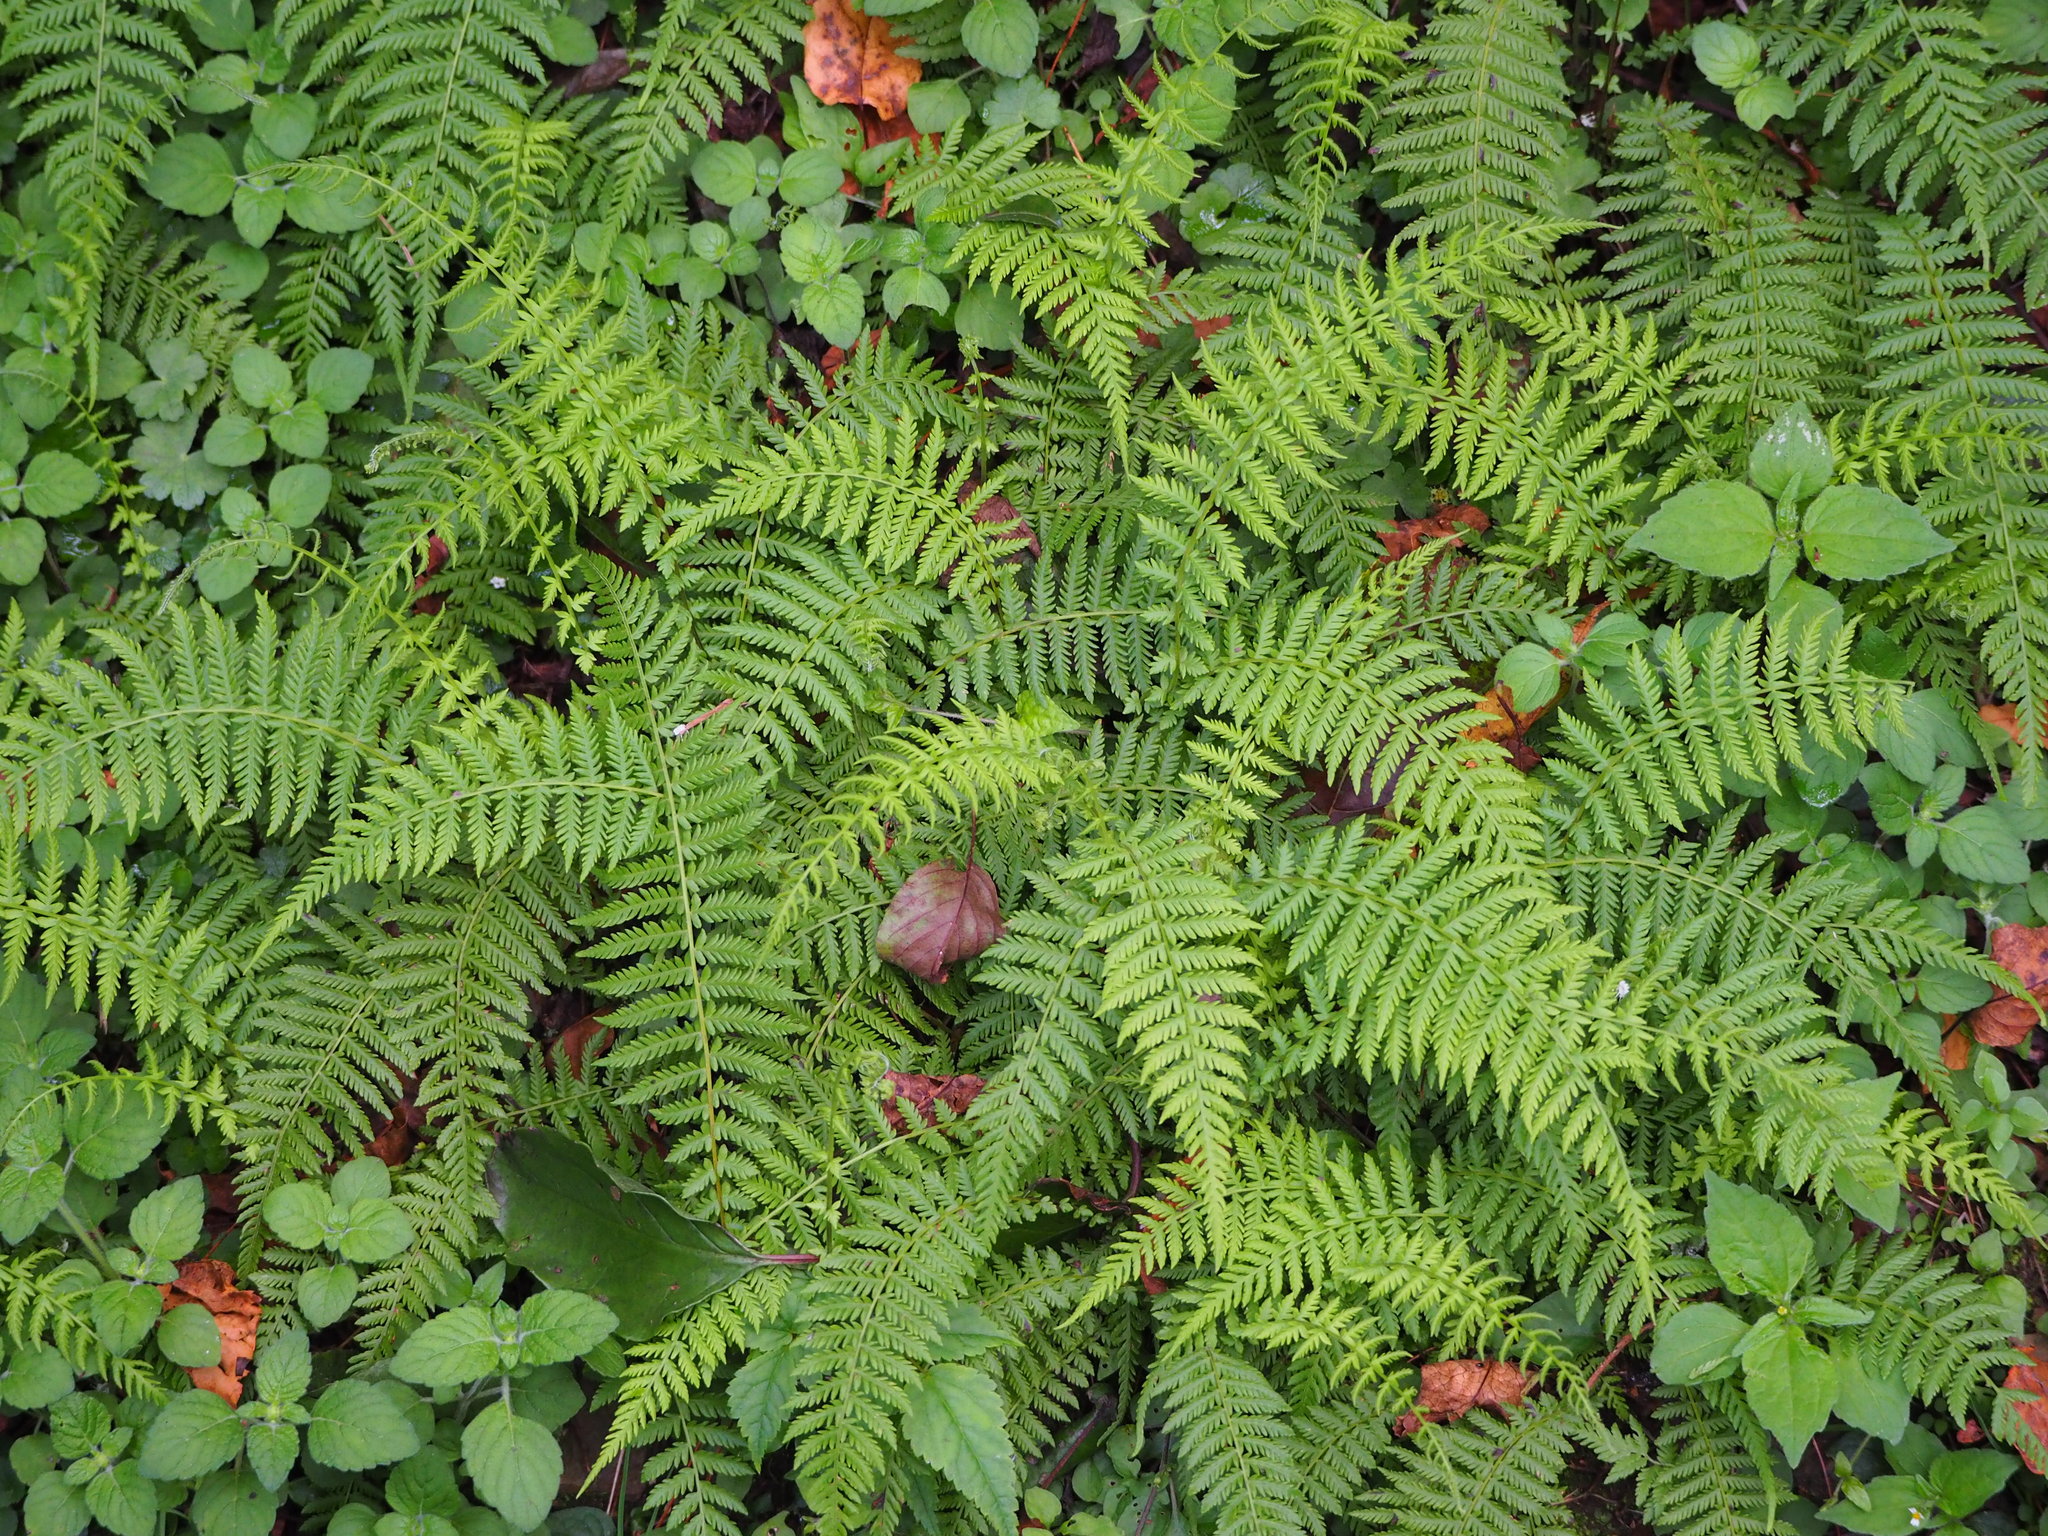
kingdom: Plantae
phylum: Tracheophyta
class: Polypodiopsida
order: Polypodiales
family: Thelypteridaceae
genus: Amauropelta
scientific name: Amauropelta beddomei
